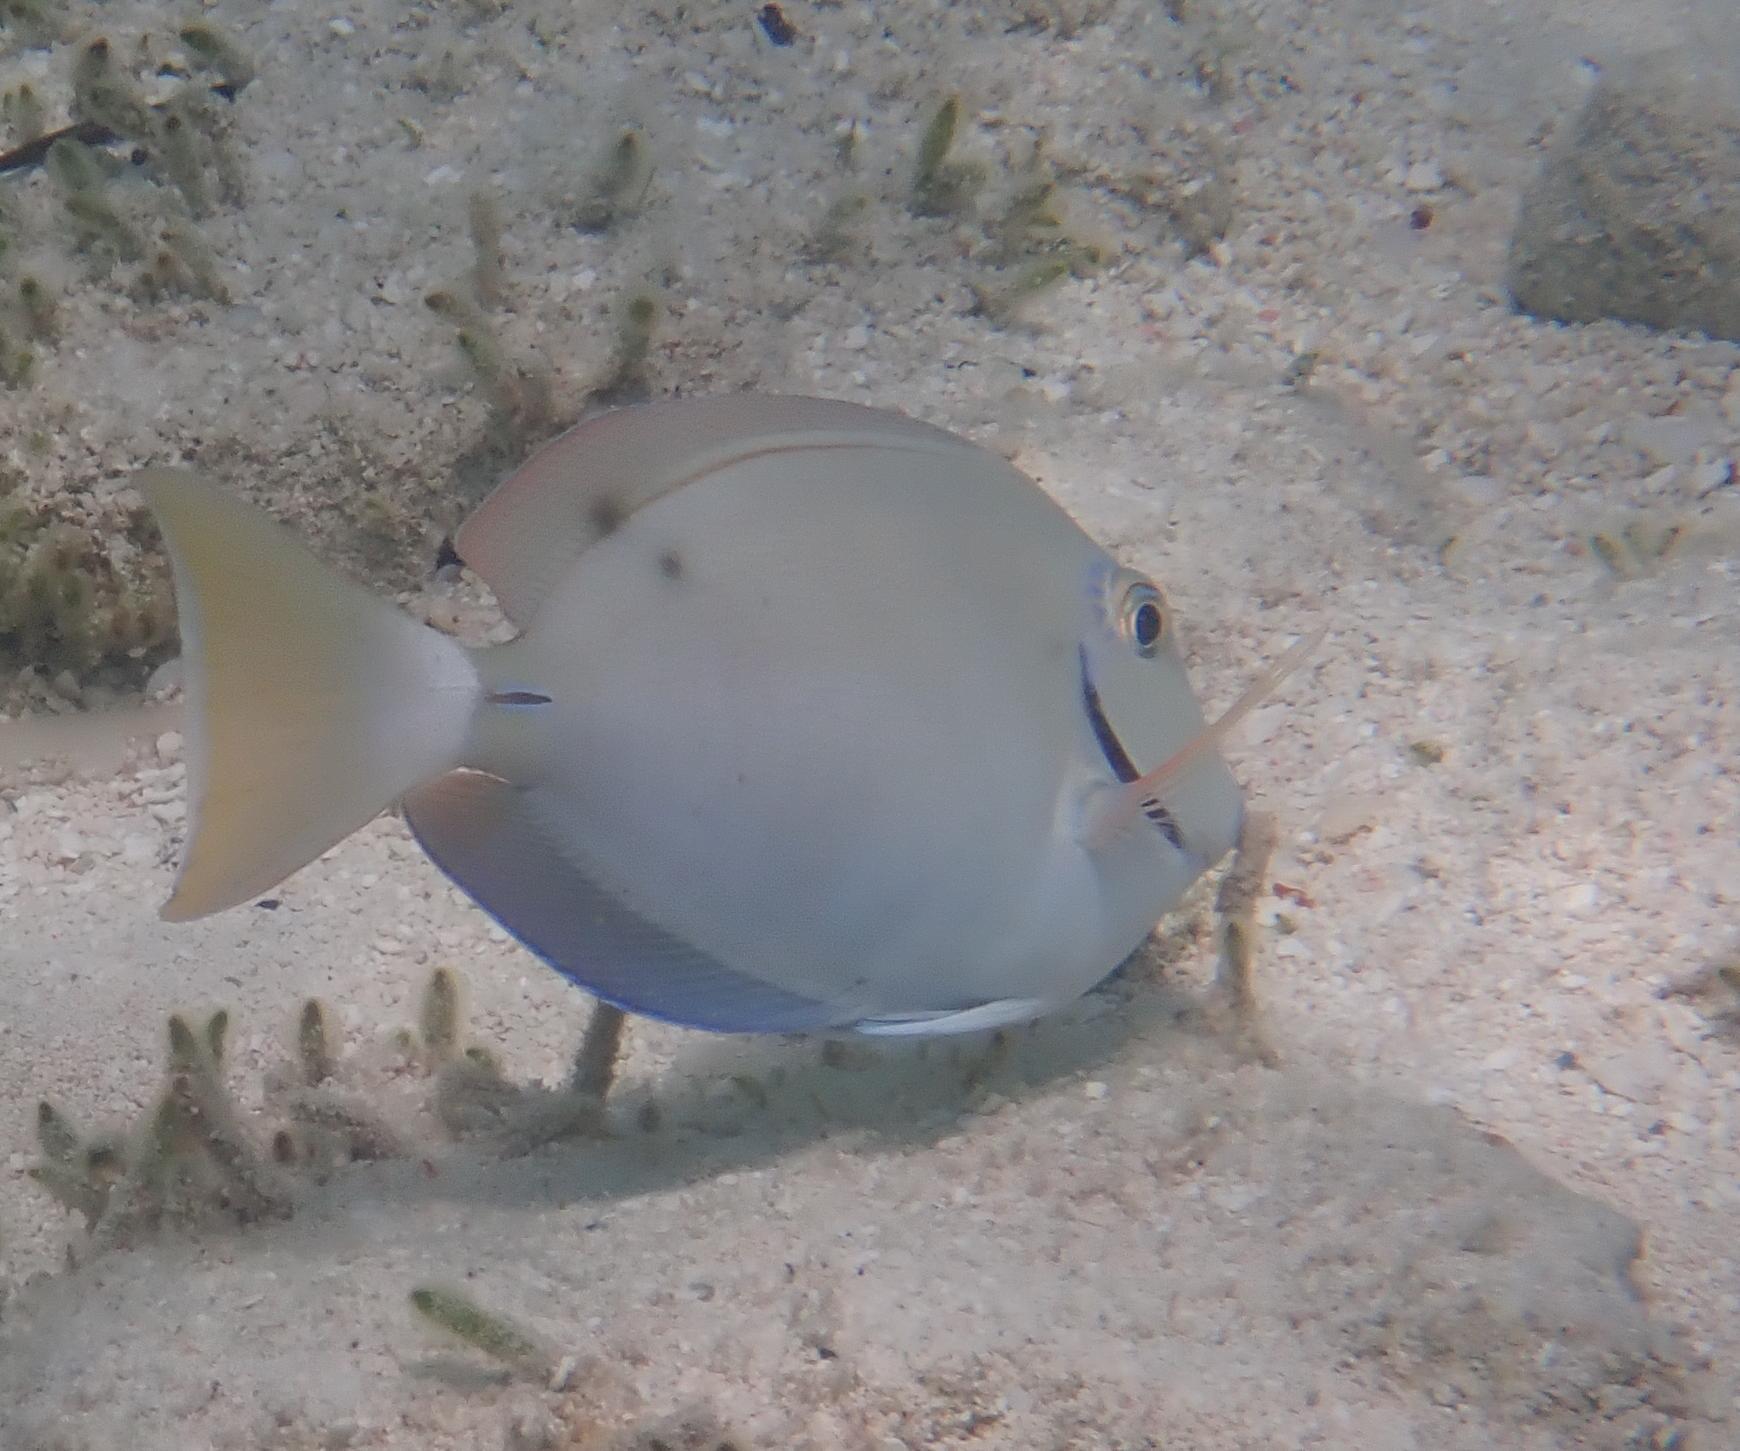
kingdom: Animalia
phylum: Chordata
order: Perciformes
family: Acanthuridae
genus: Acanthurus
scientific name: Acanthurus bahianus
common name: Ocean surgeon
